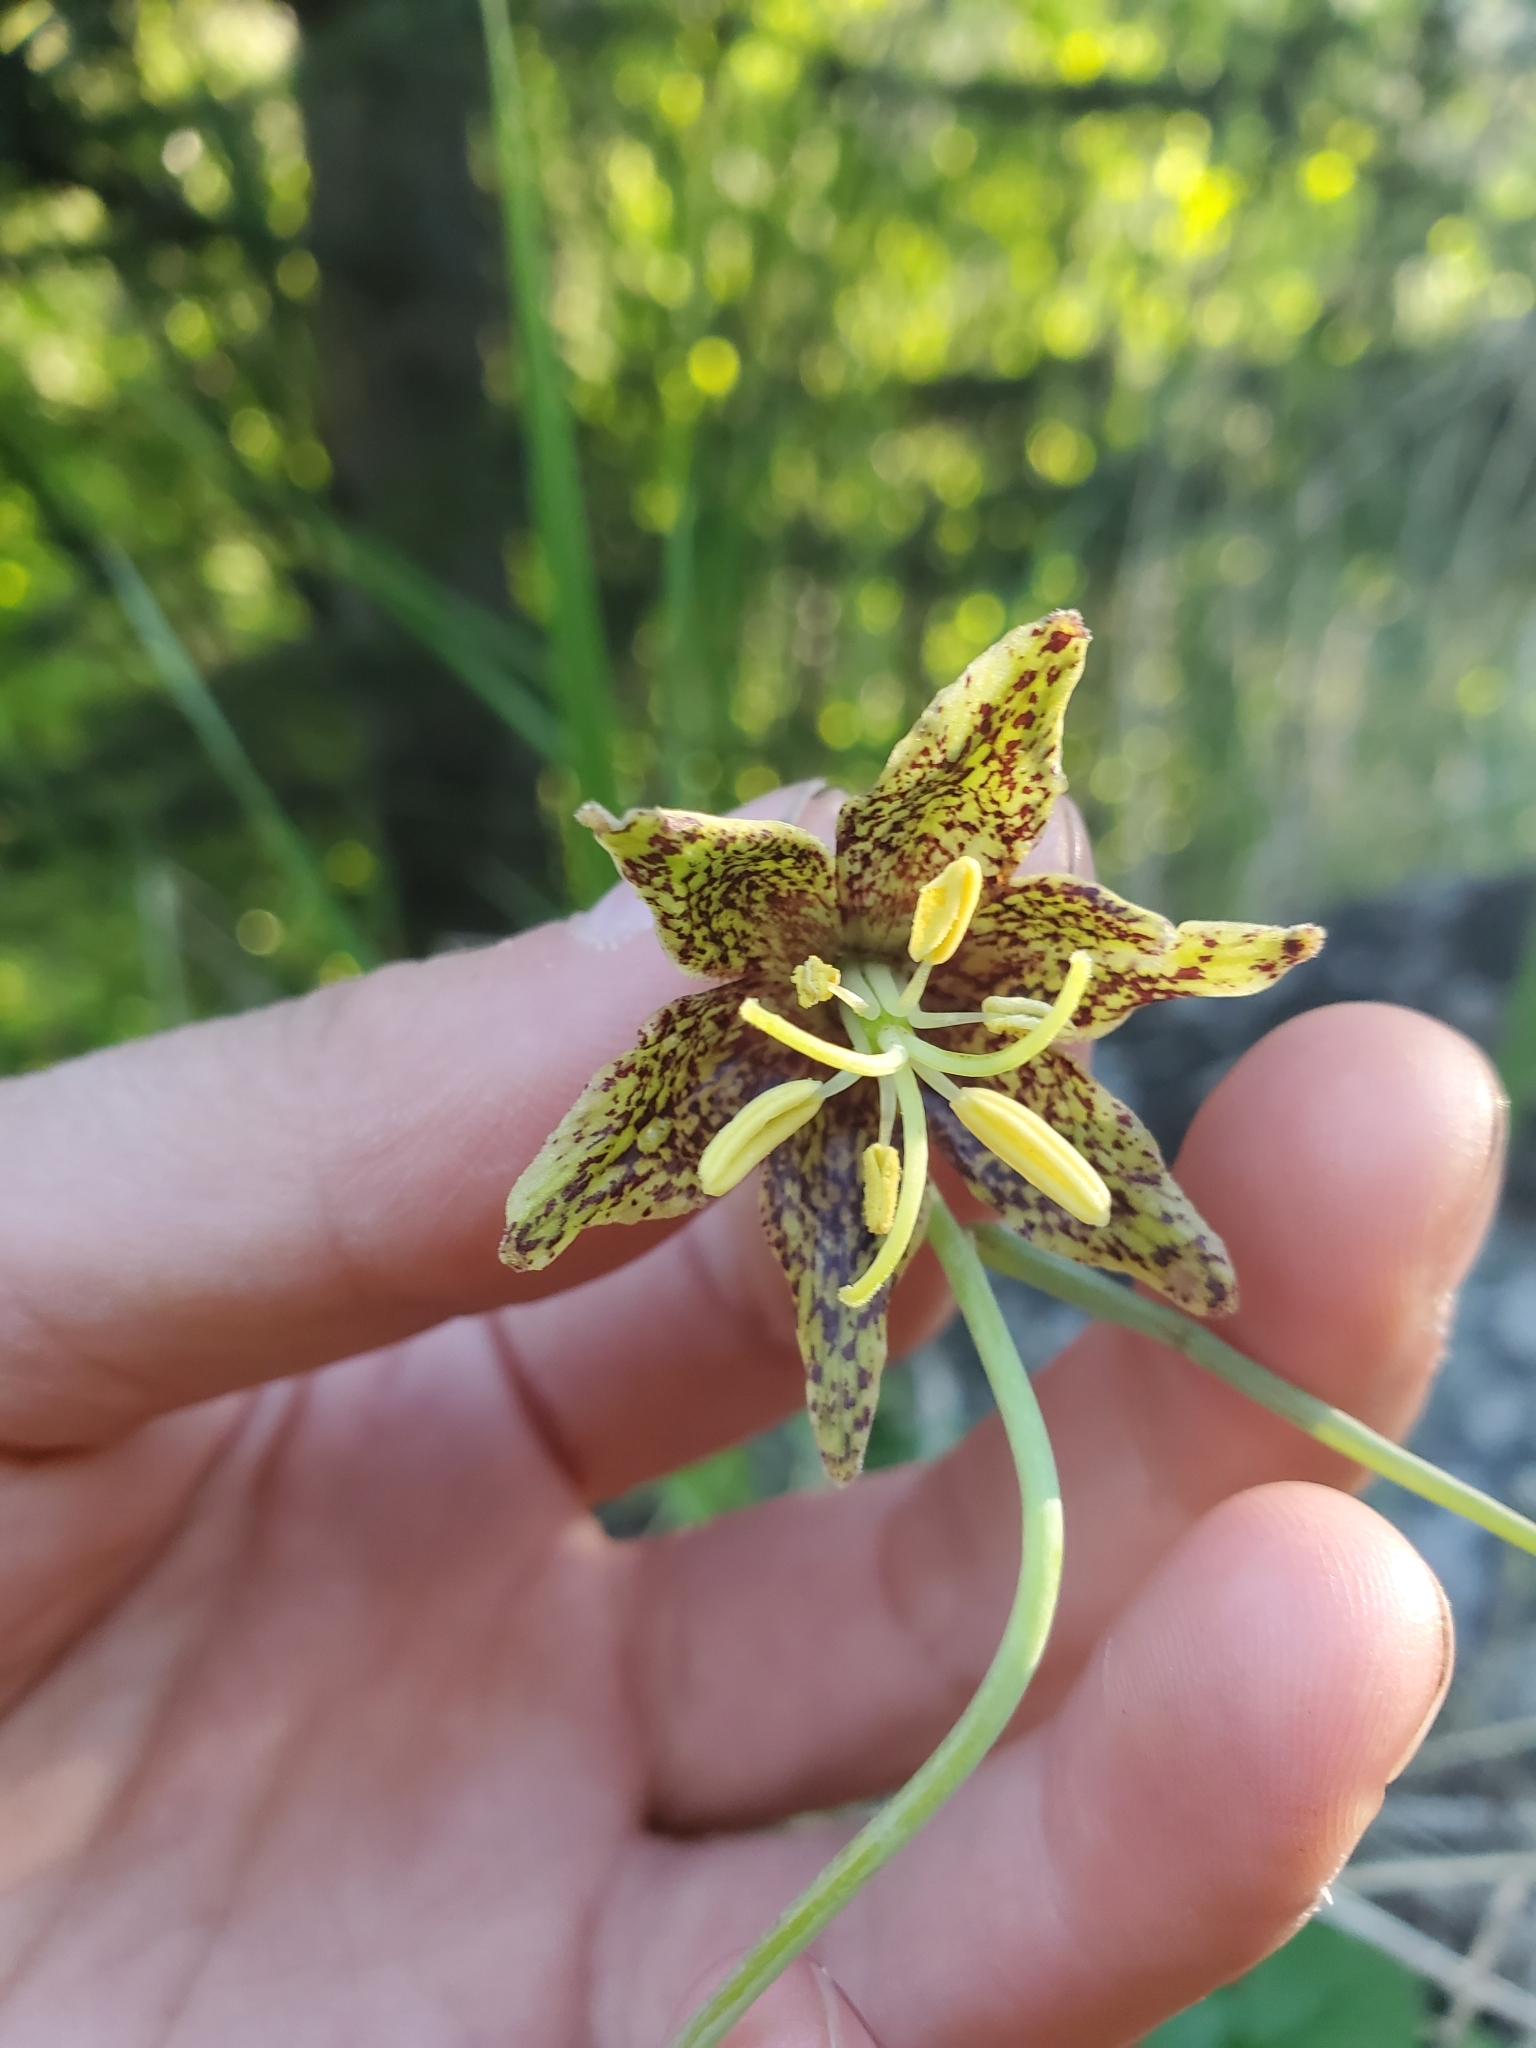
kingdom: Plantae
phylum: Tracheophyta
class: Liliopsida
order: Liliales
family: Liliaceae
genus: Fritillaria
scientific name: Fritillaria atropurpurea
